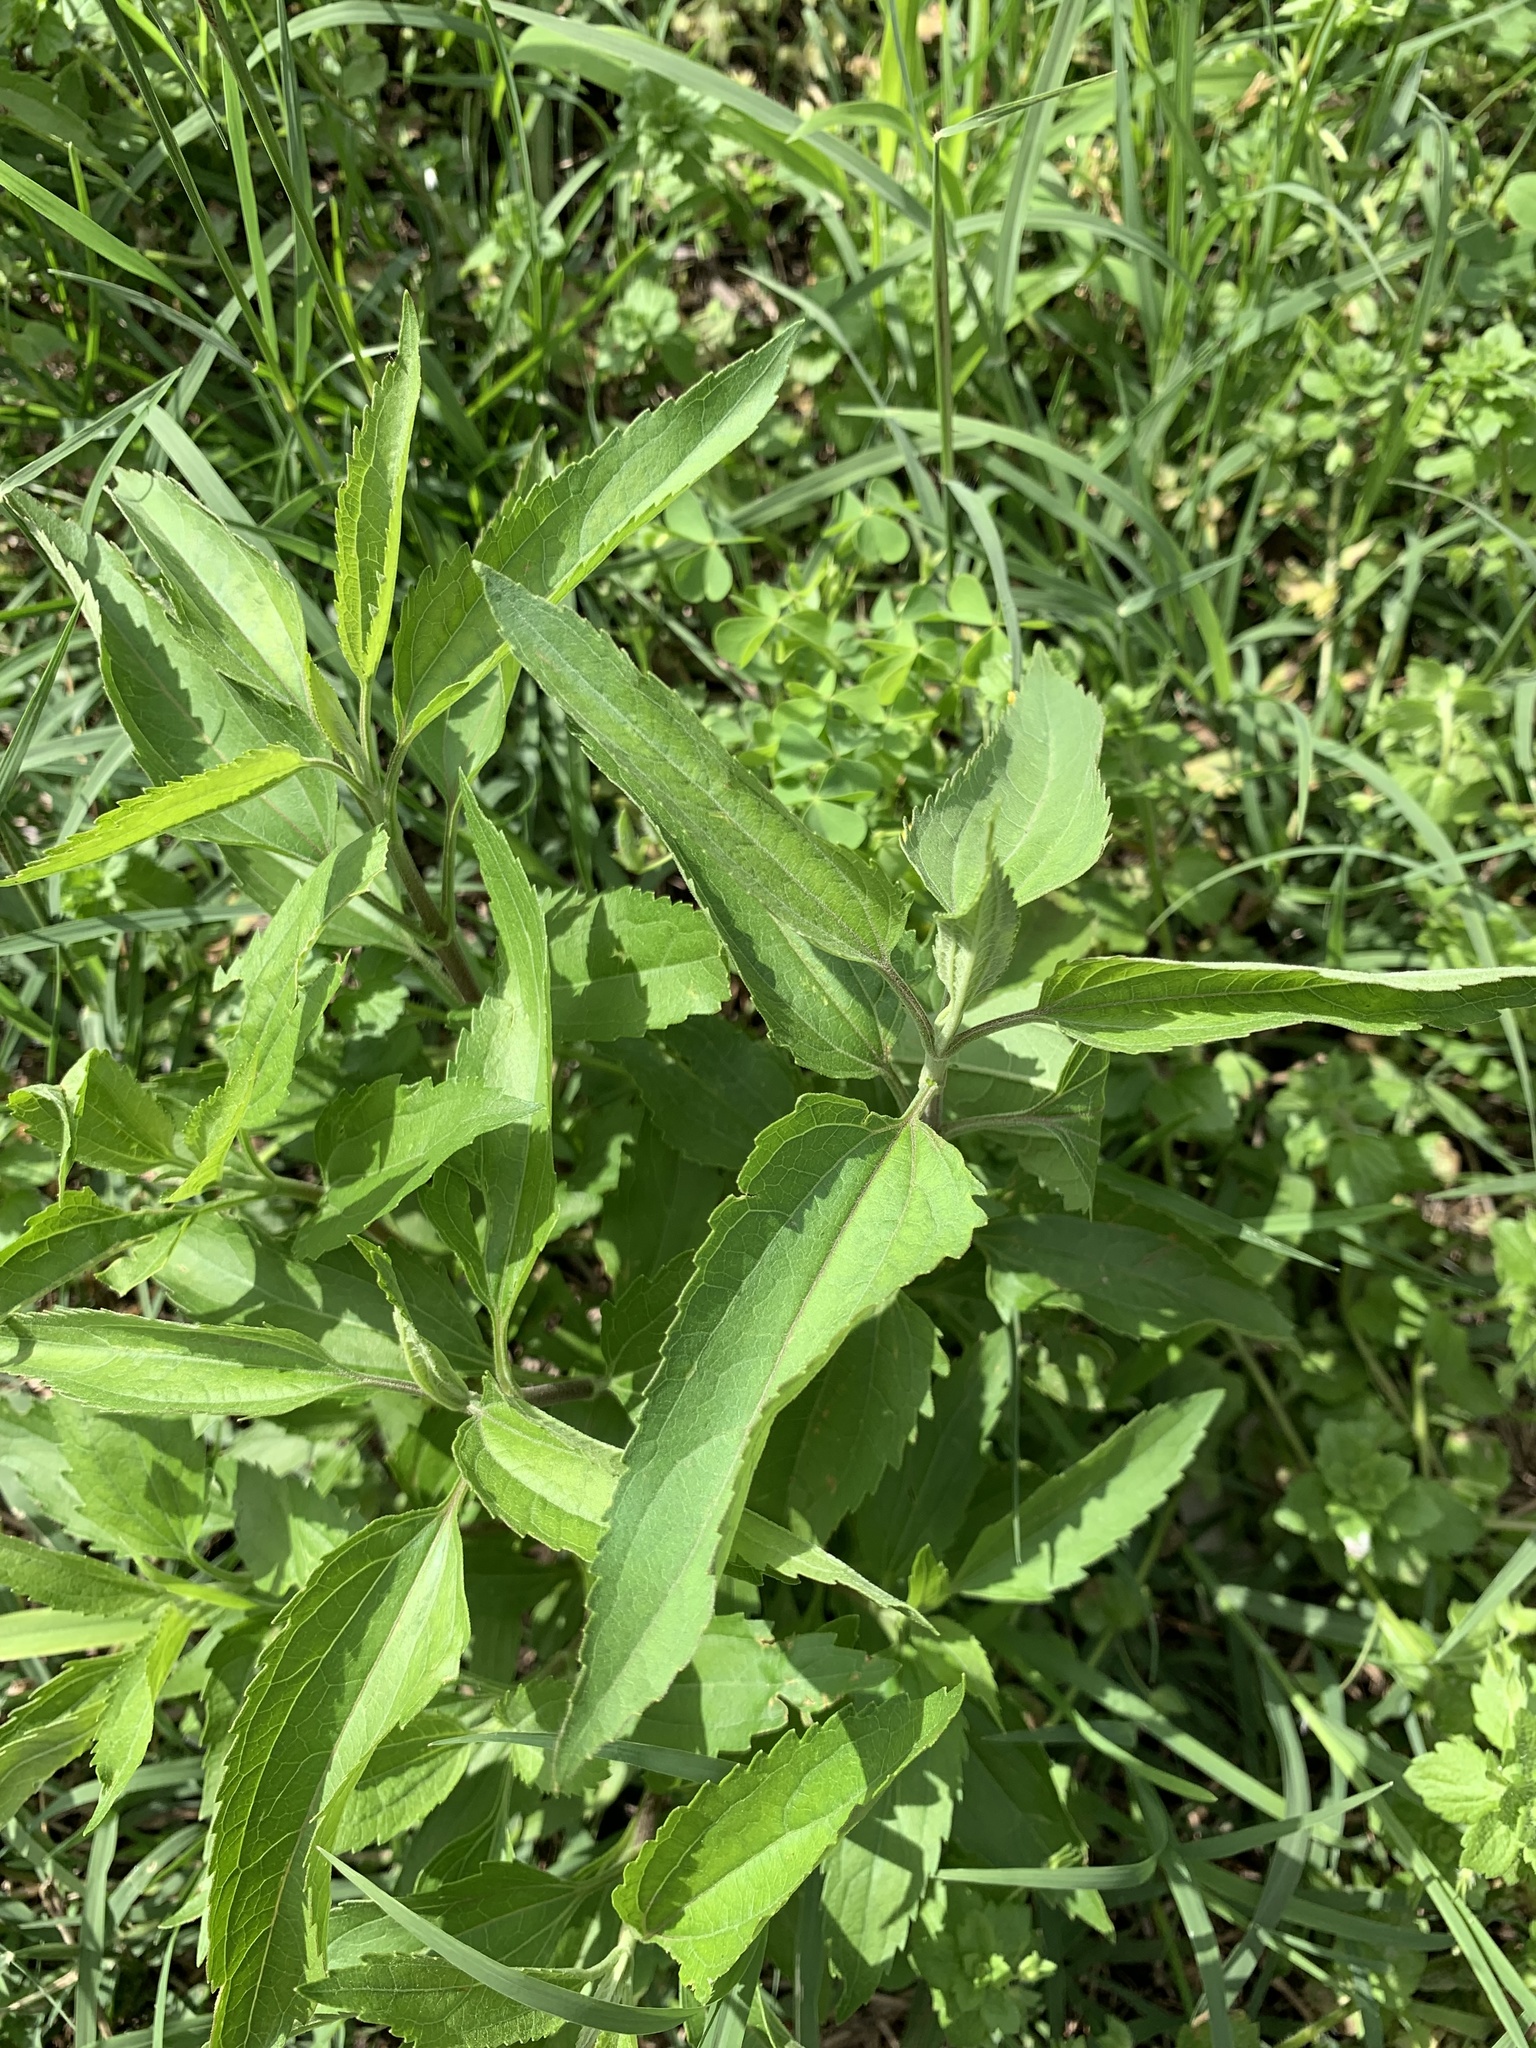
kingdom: Plantae
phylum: Tracheophyta
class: Magnoliopsida
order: Asterales
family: Asteraceae
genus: Eupatorium
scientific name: Eupatorium serotinum
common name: Late boneset
